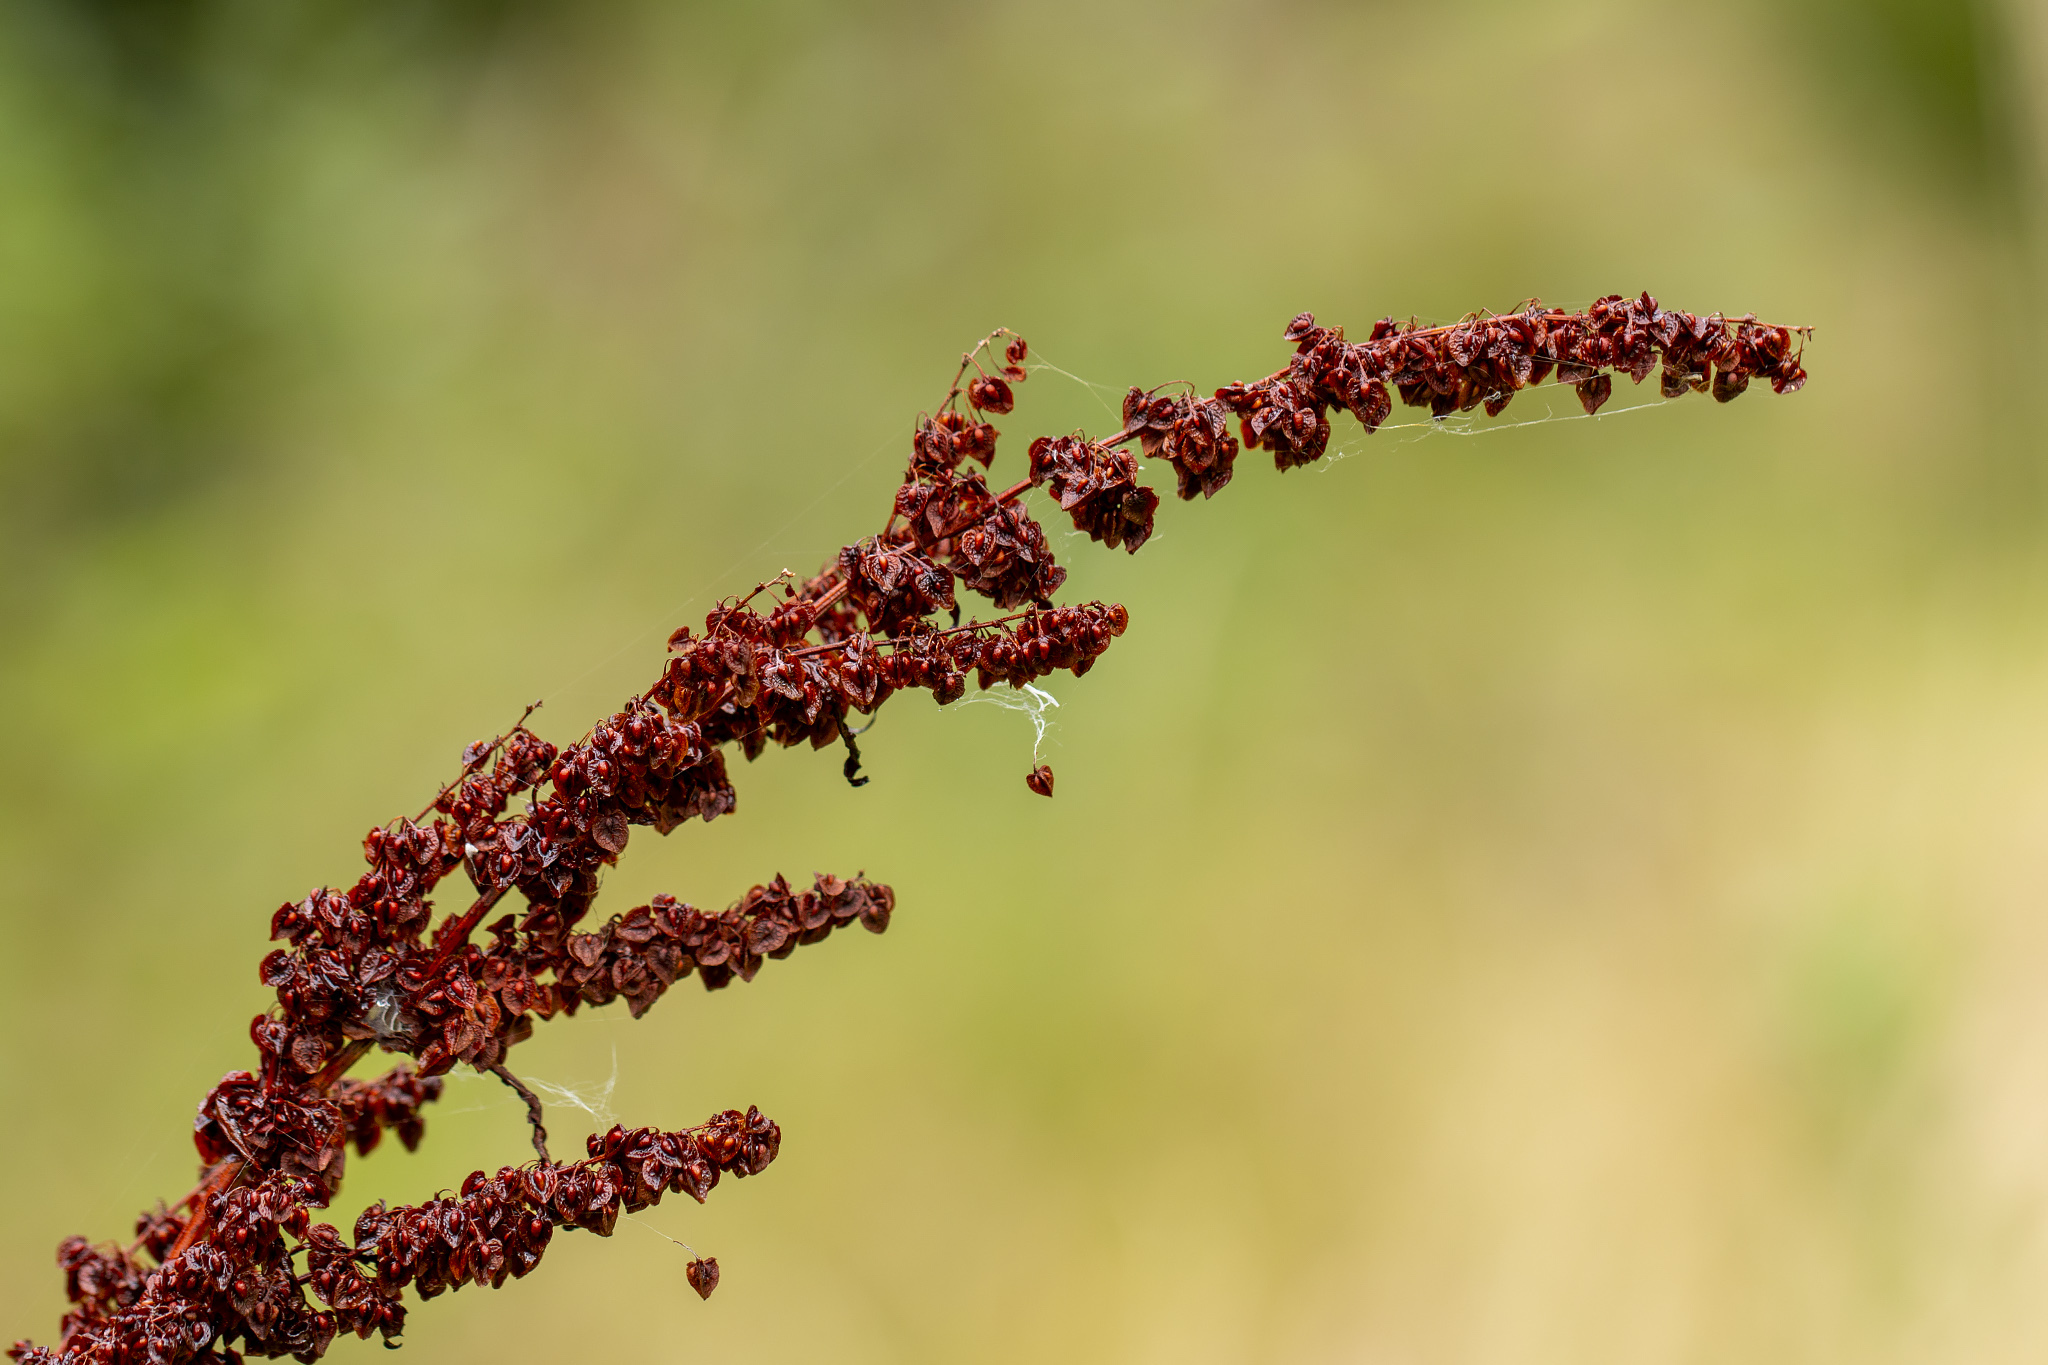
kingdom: Plantae
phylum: Tracheophyta
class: Magnoliopsida
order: Caryophyllales
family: Polygonaceae
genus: Rumex
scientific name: Rumex crispus
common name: Curled dock
